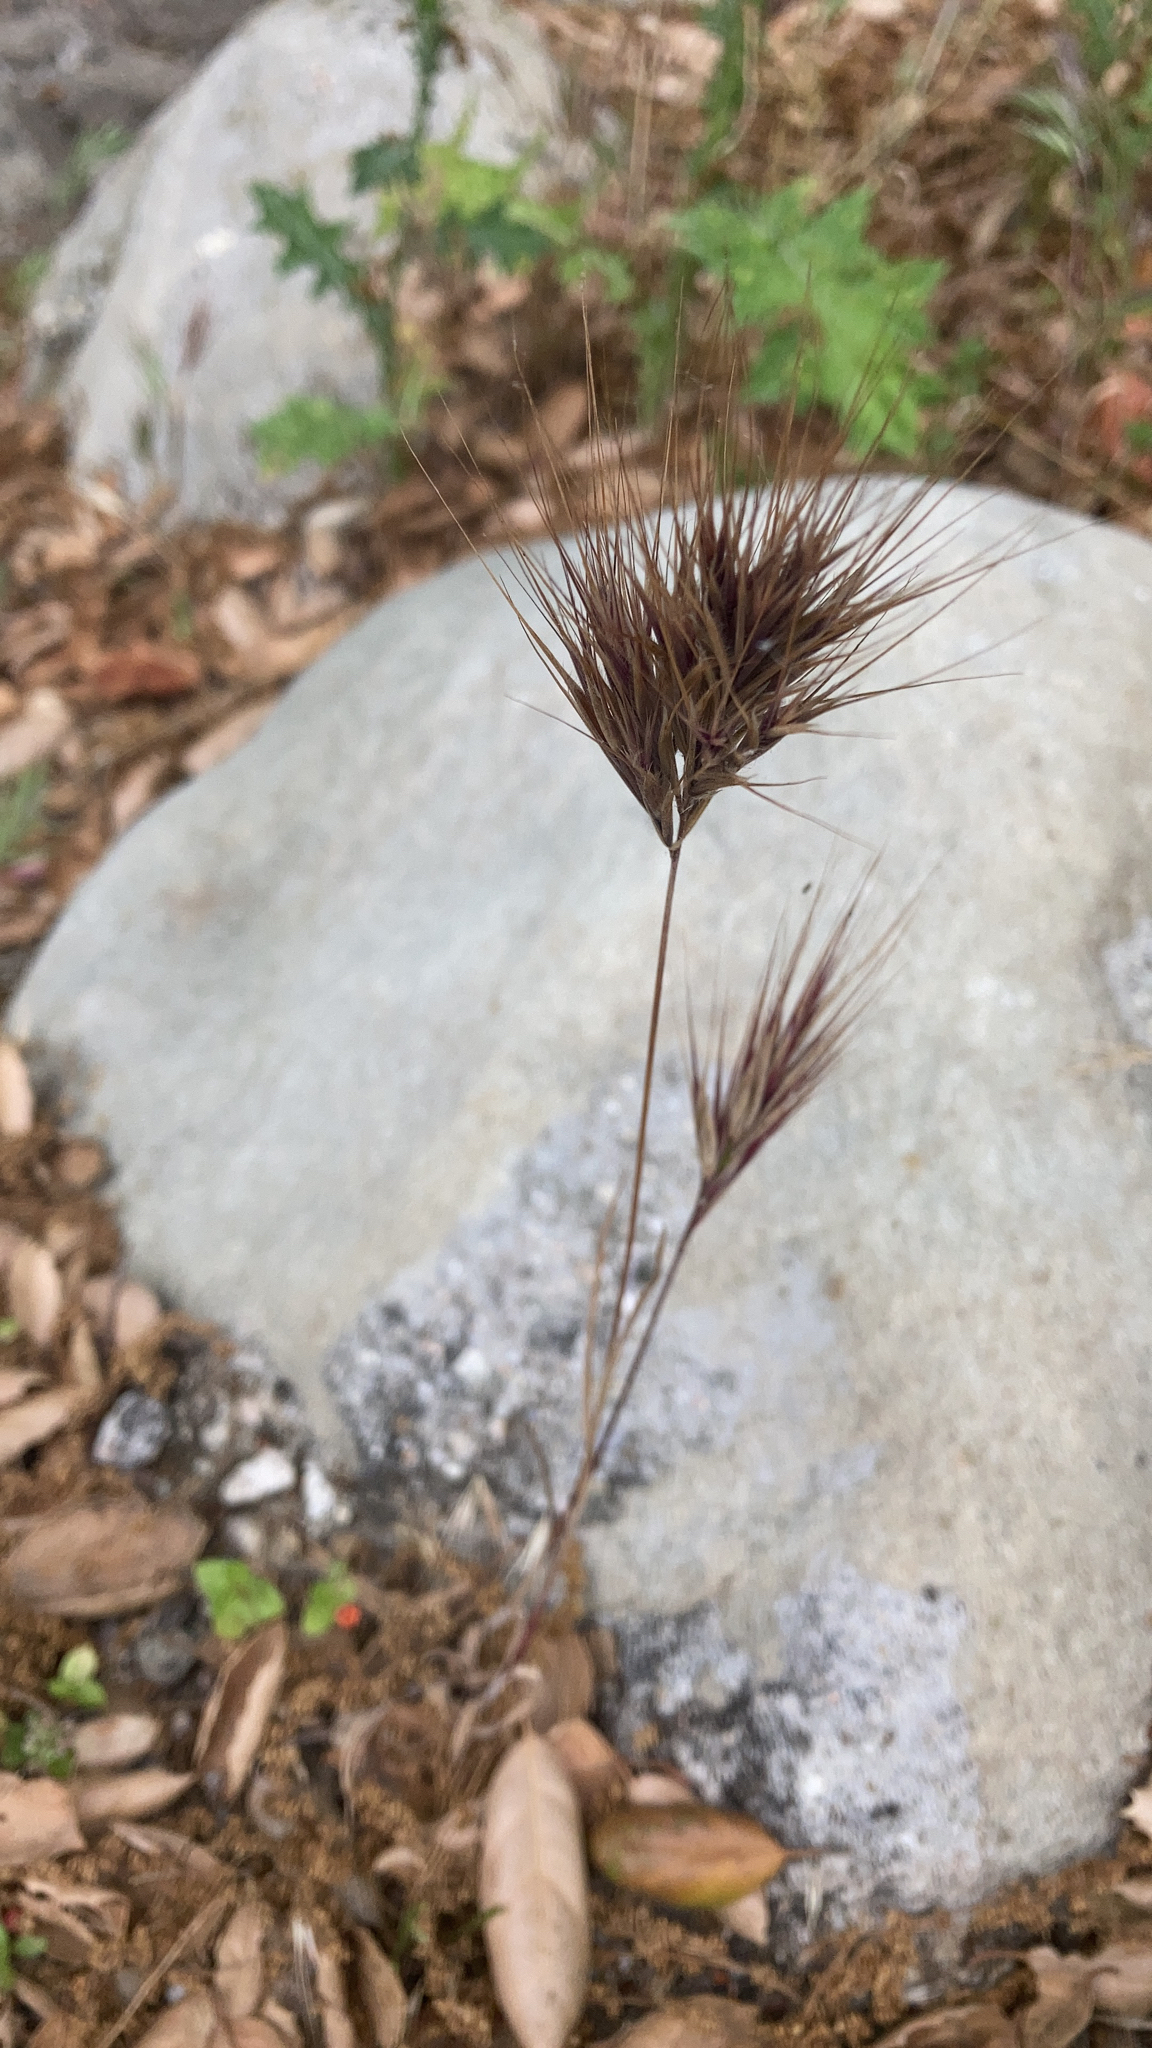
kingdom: Plantae
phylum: Tracheophyta
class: Liliopsida
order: Poales
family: Poaceae
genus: Bromus
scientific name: Bromus rubens
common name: Red brome
